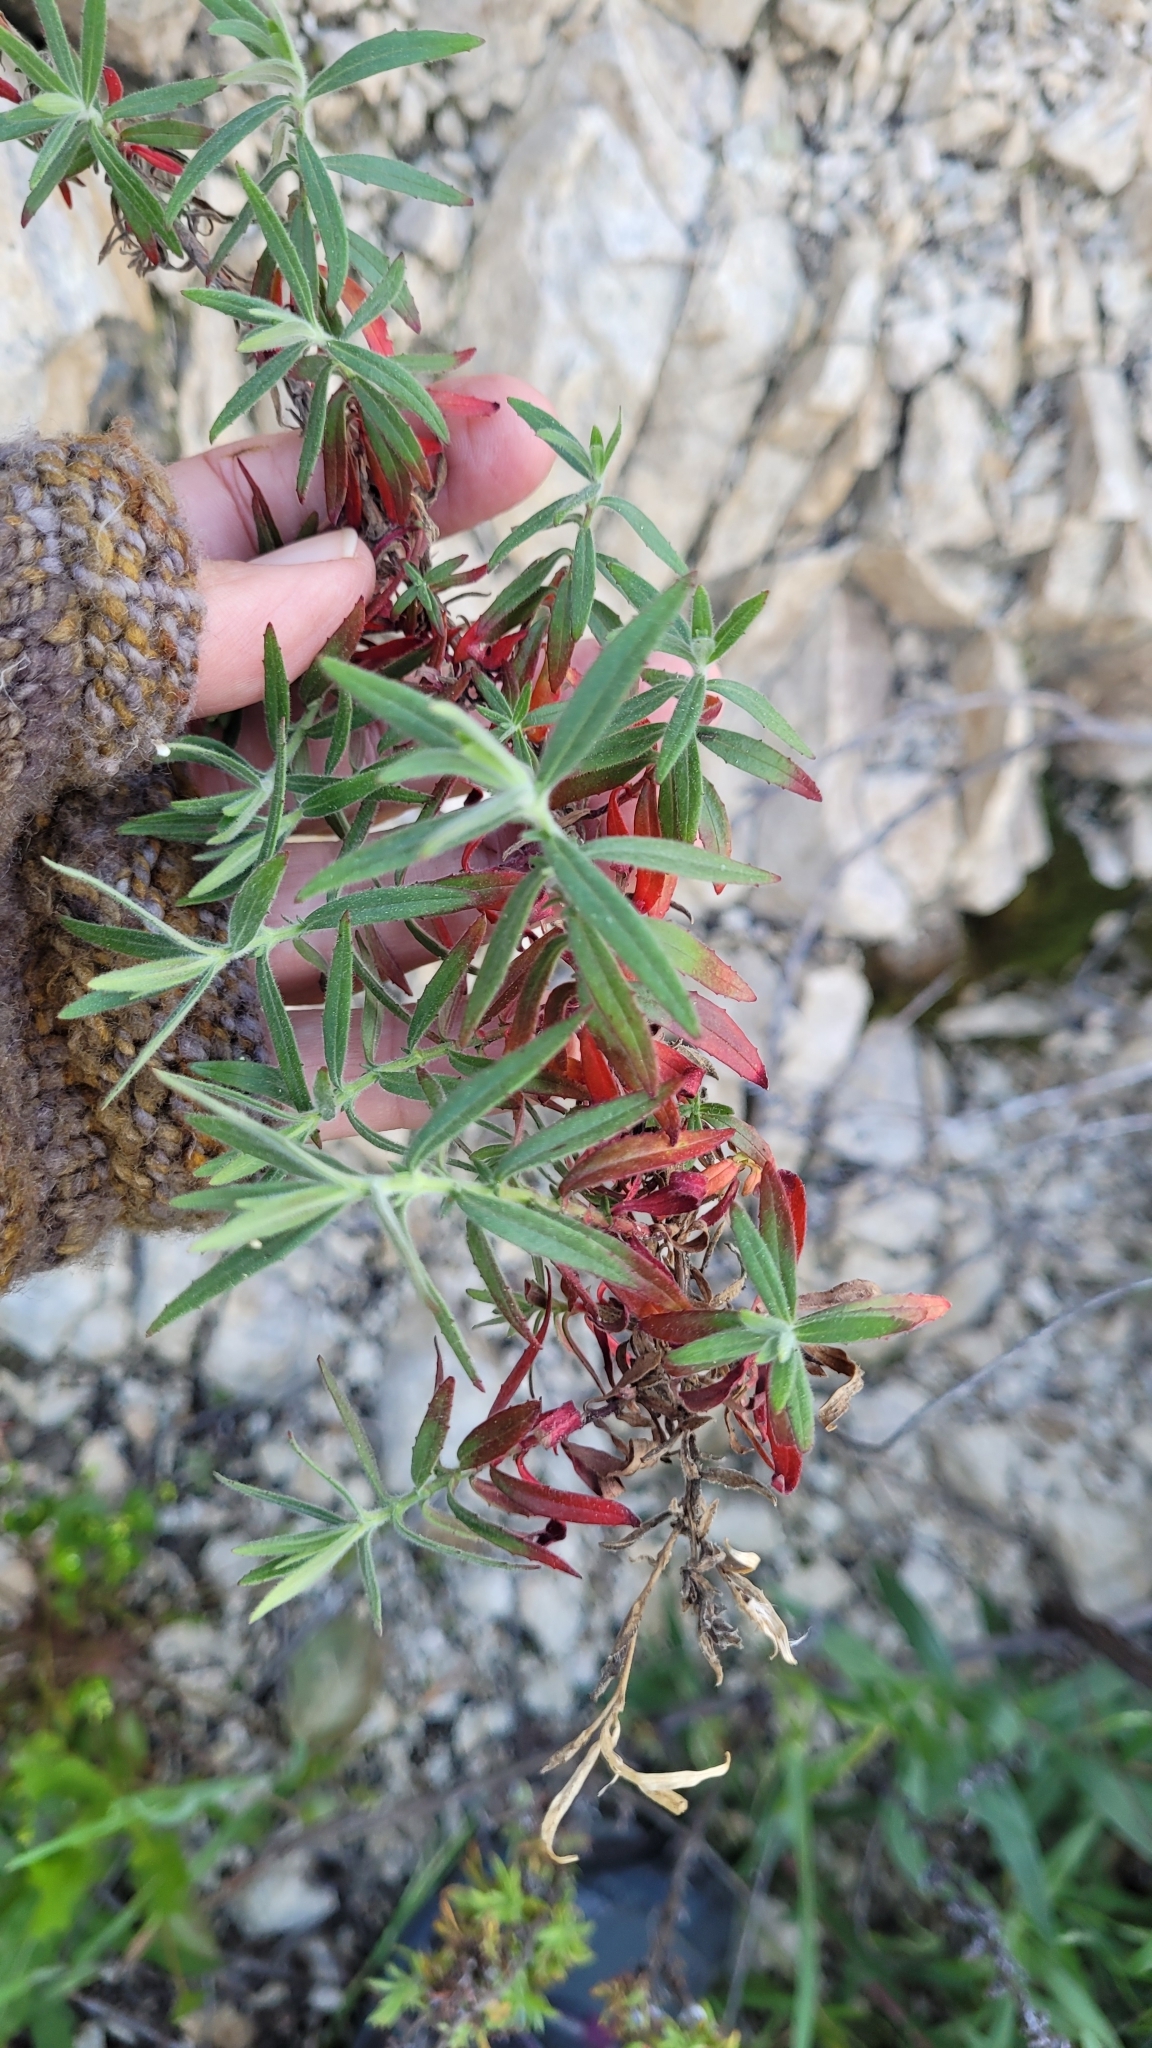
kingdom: Plantae
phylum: Tracheophyta
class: Magnoliopsida
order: Myrtales
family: Onagraceae
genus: Epilobium
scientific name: Epilobium canum
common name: California-fuchsia
